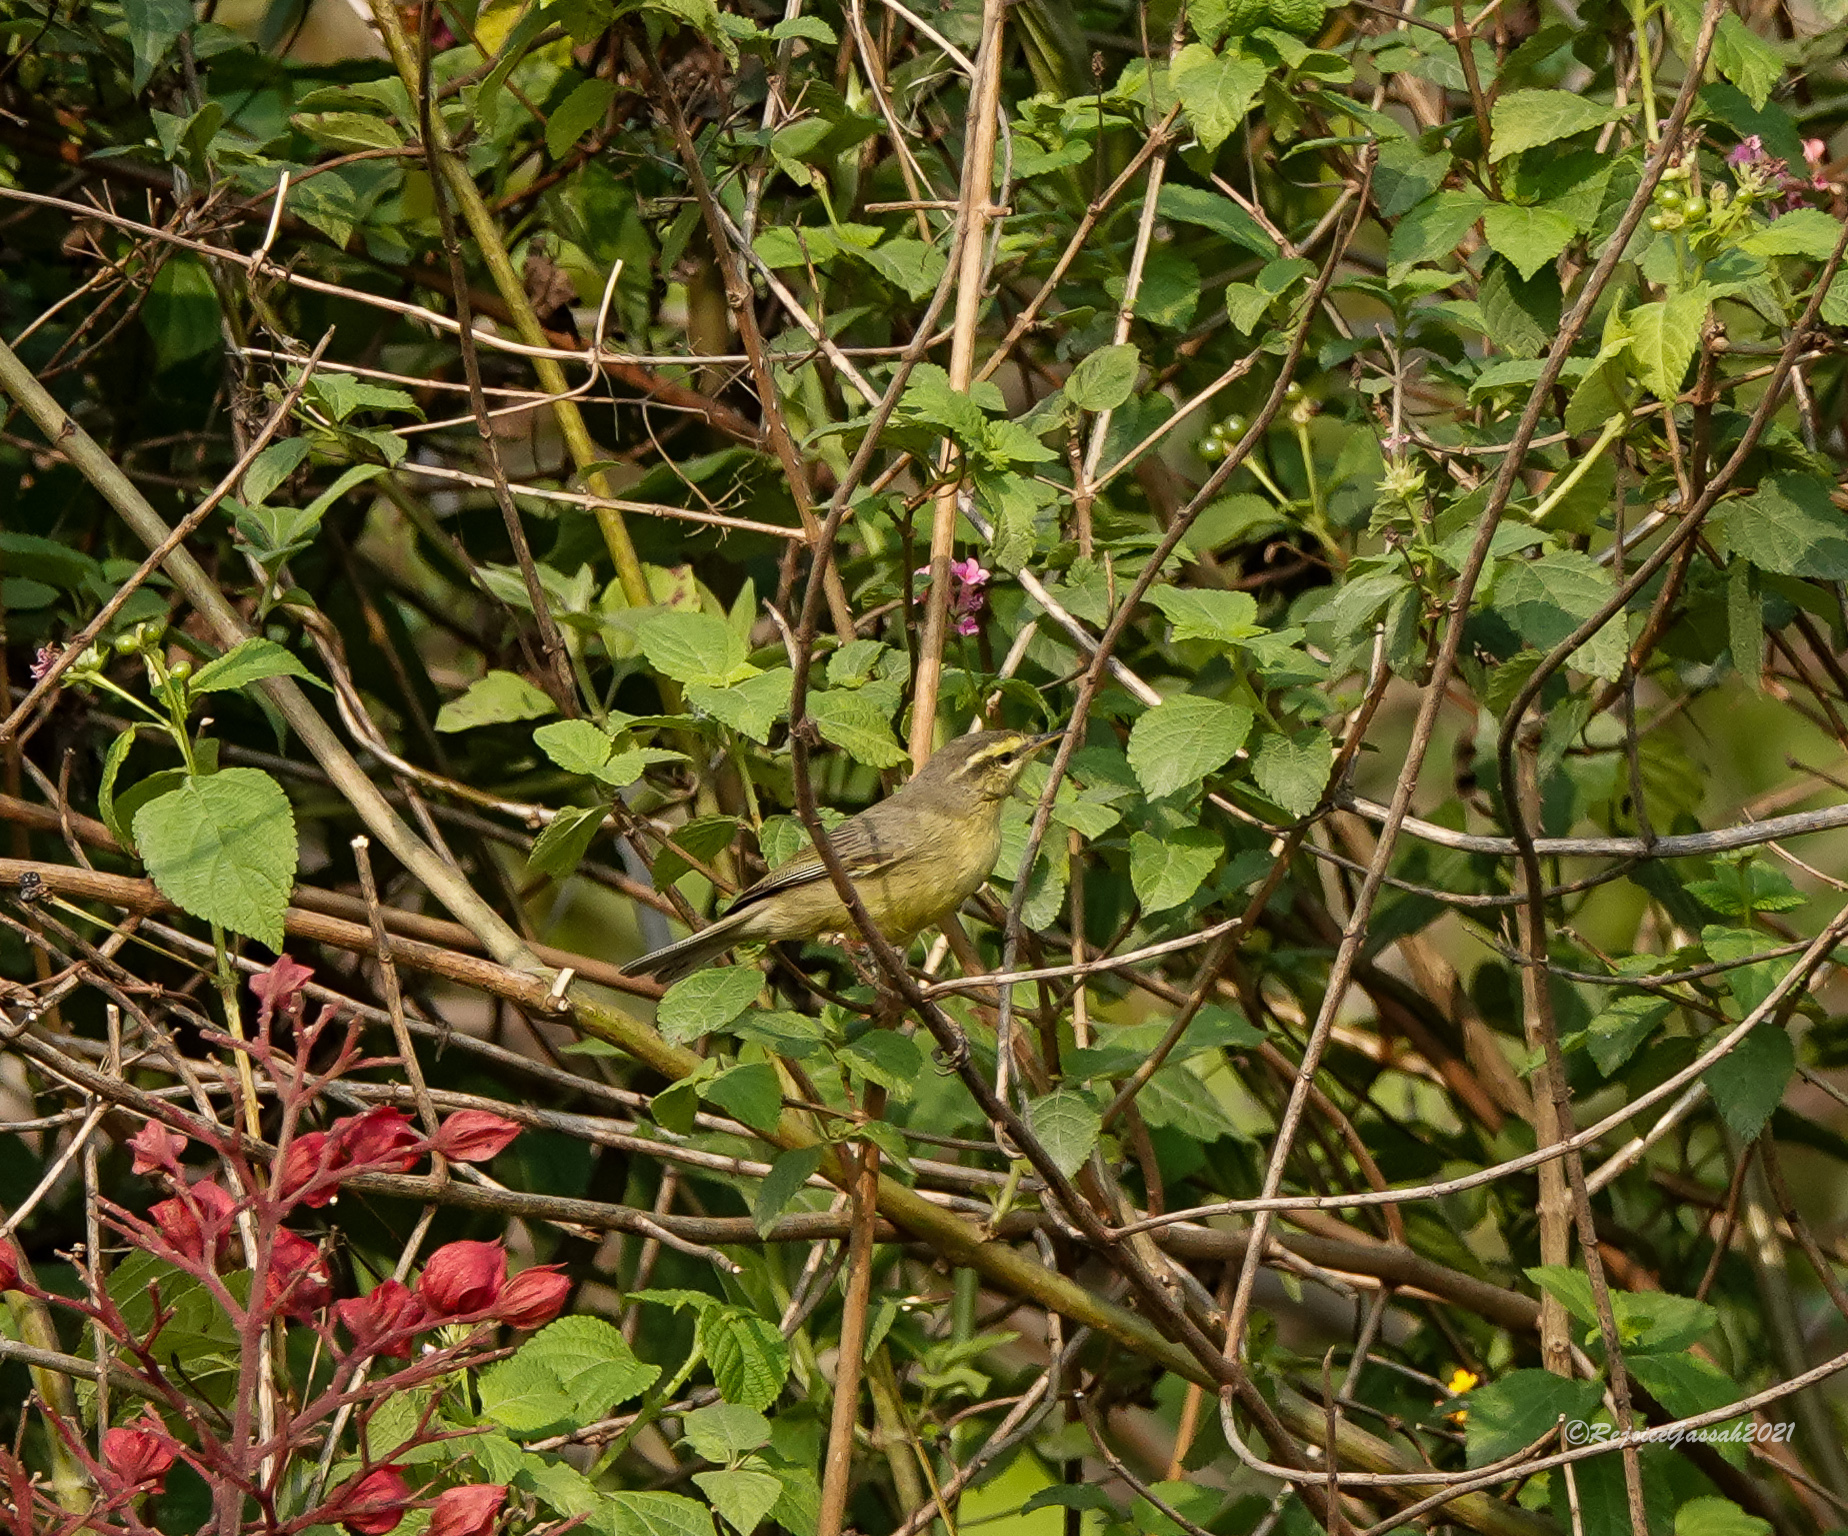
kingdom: Animalia
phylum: Chordata
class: Aves
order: Passeriformes
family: Phylloscopidae
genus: Phylloscopus
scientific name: Phylloscopus affinis
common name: Tickell's leaf warbler
